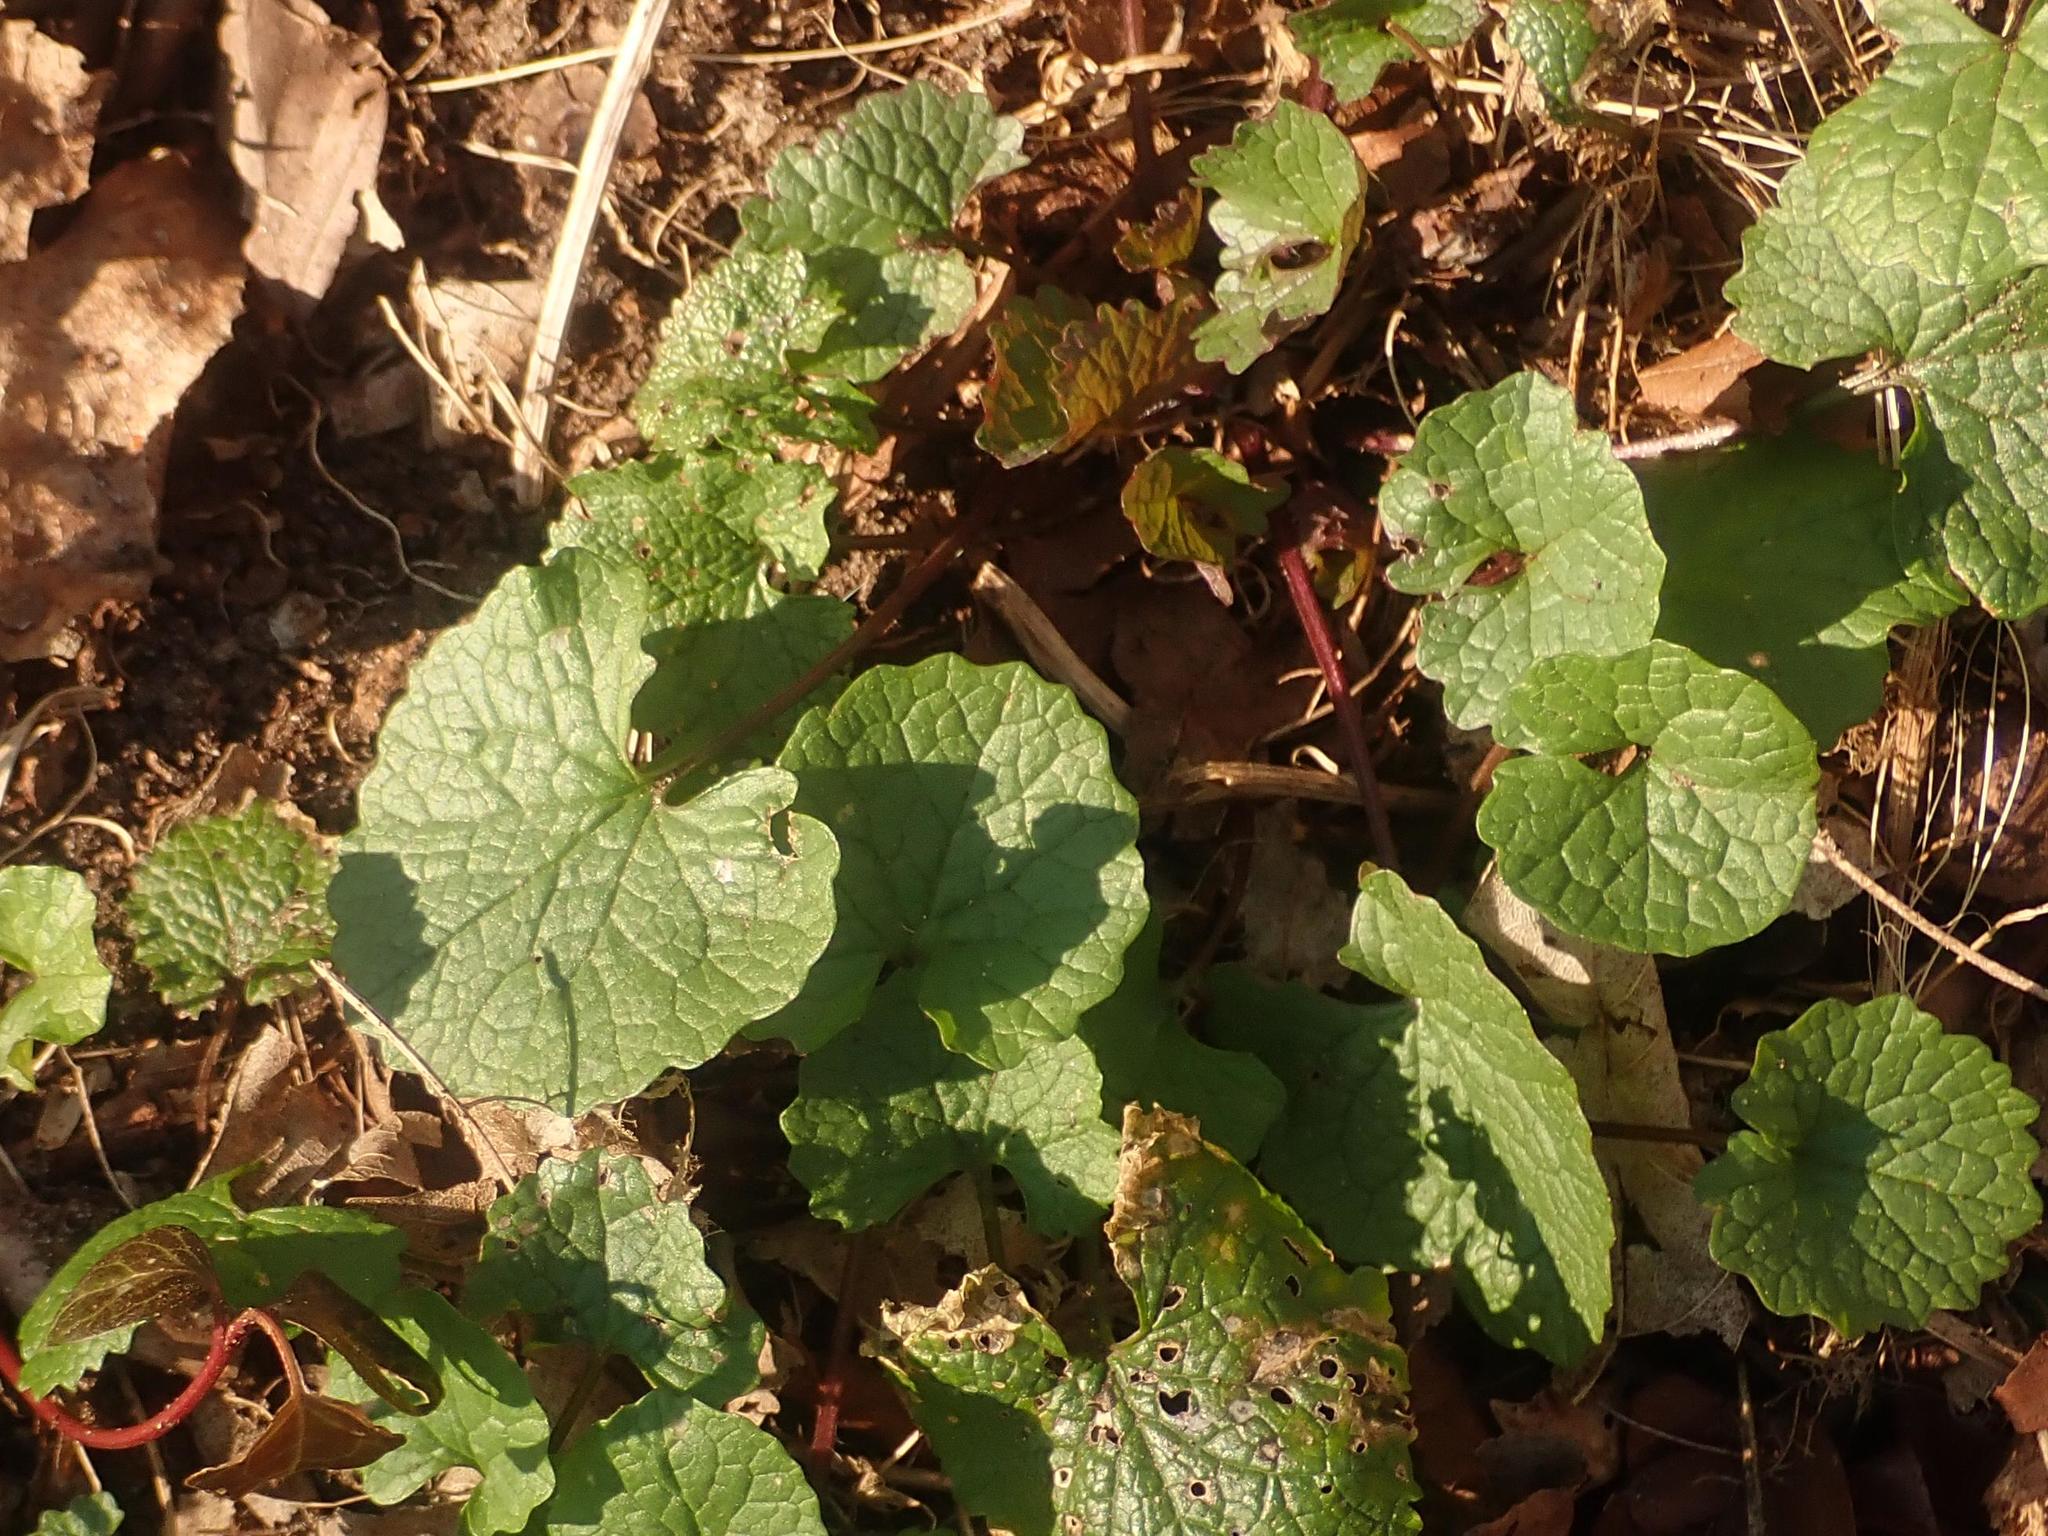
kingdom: Plantae
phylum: Tracheophyta
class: Magnoliopsida
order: Brassicales
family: Brassicaceae
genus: Alliaria
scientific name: Alliaria petiolata
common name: Garlic mustard
